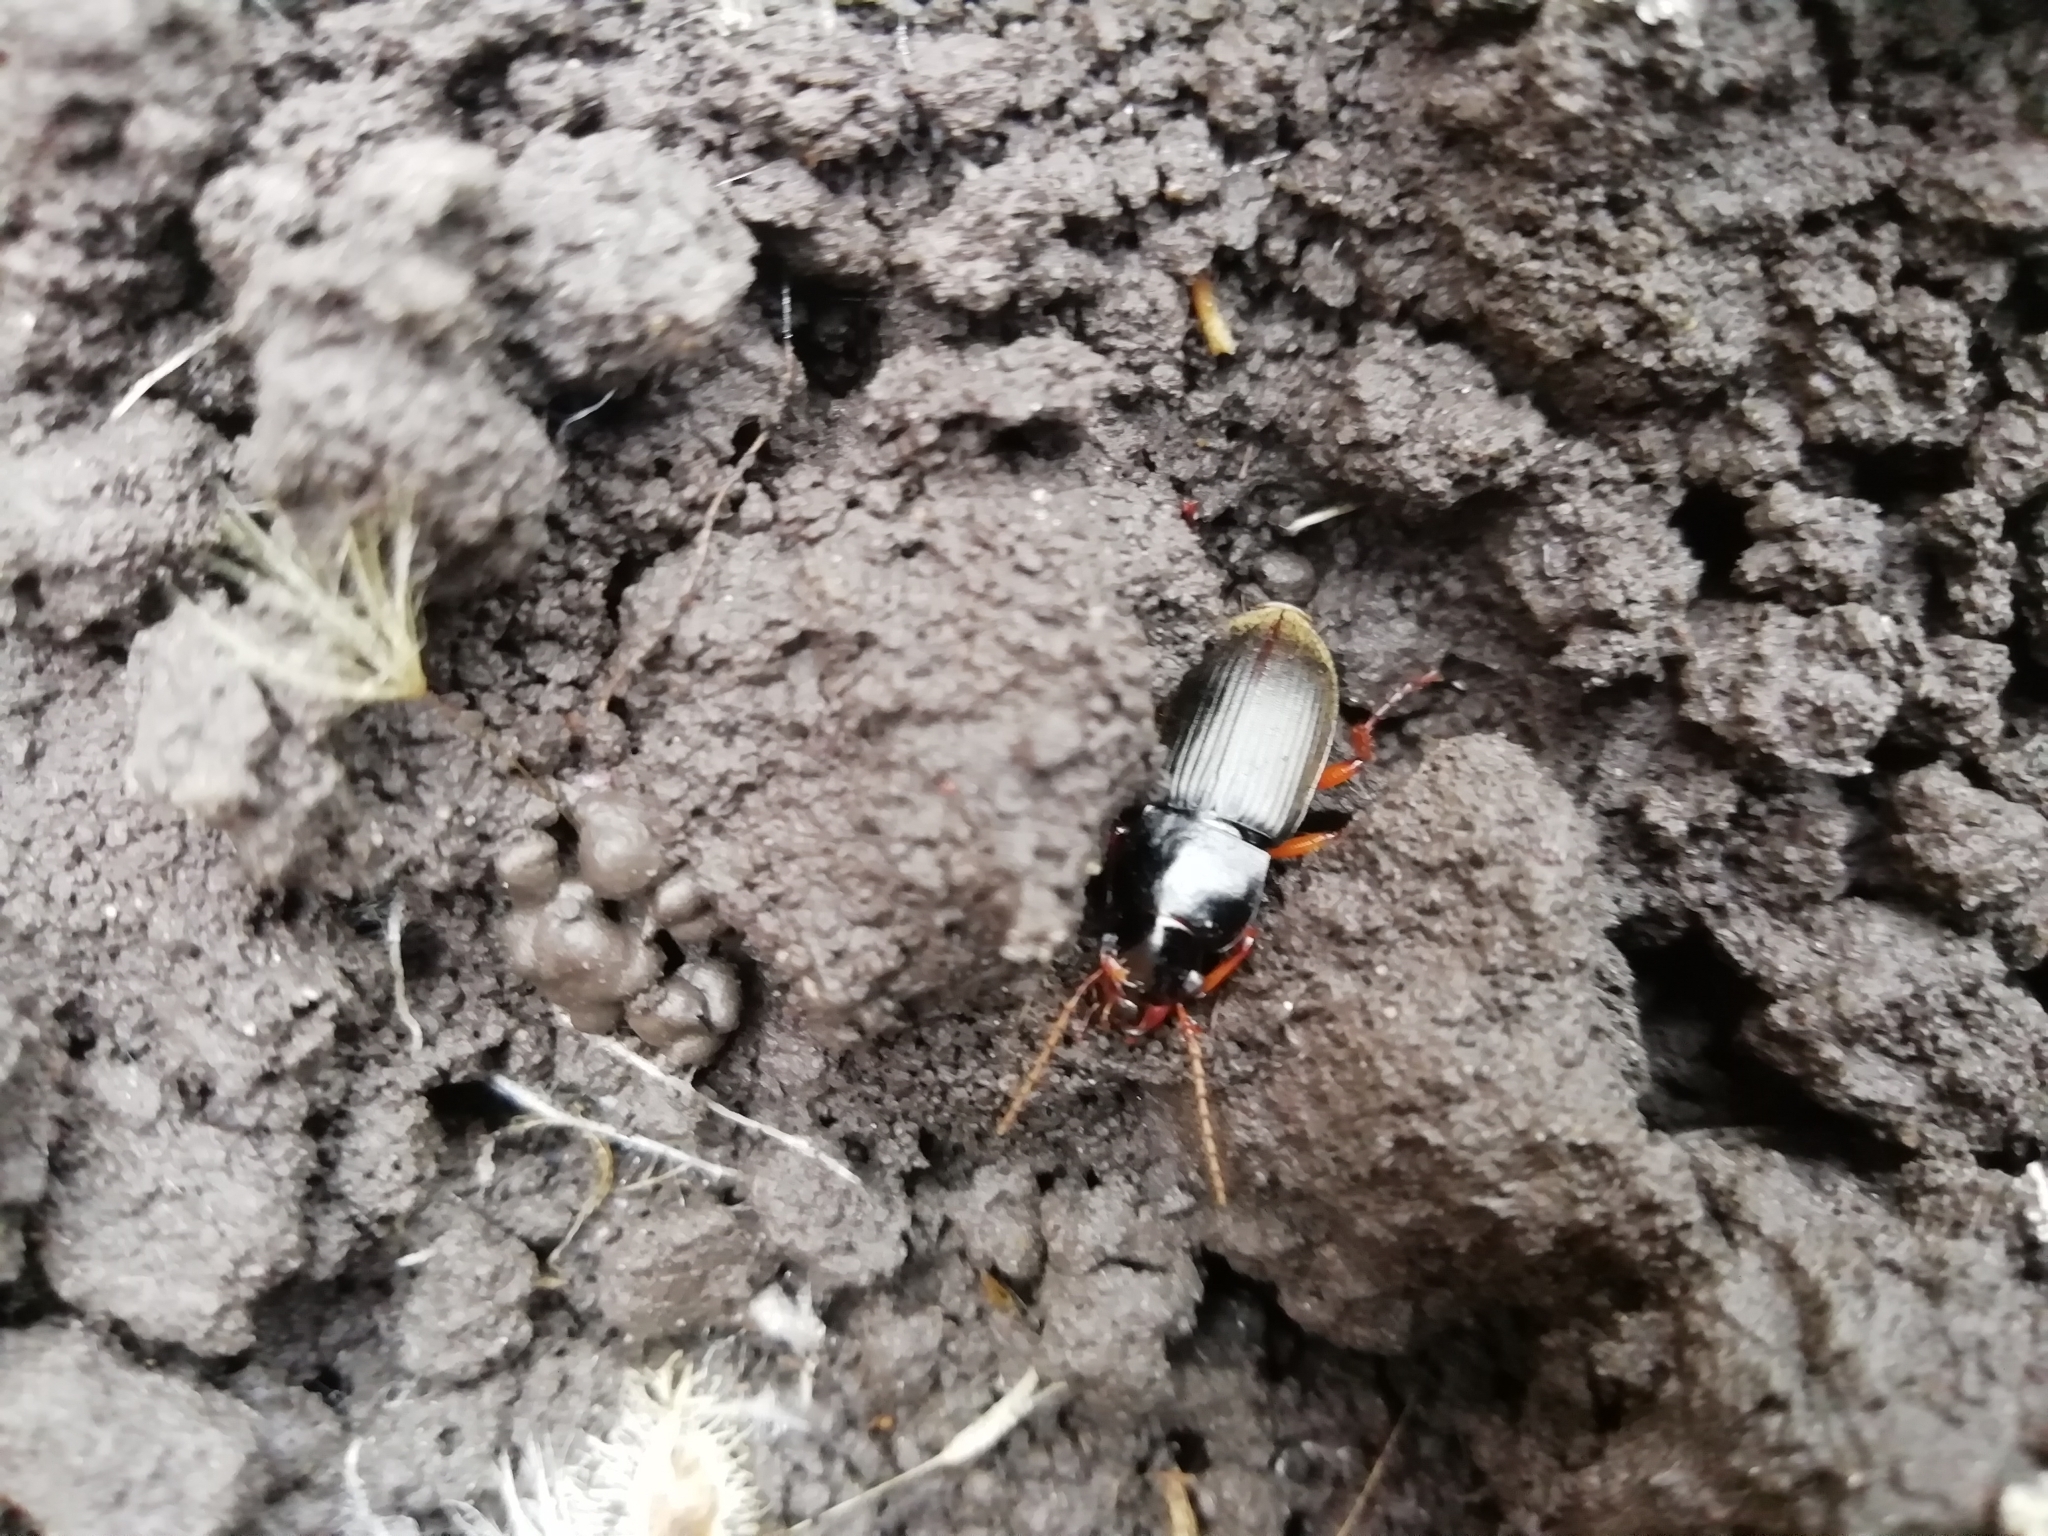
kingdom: Animalia
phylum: Arthropoda
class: Insecta
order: Coleoptera
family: Carabidae
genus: Harpalus
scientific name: Harpalus rufipes
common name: Strawberry harp ground beetle
